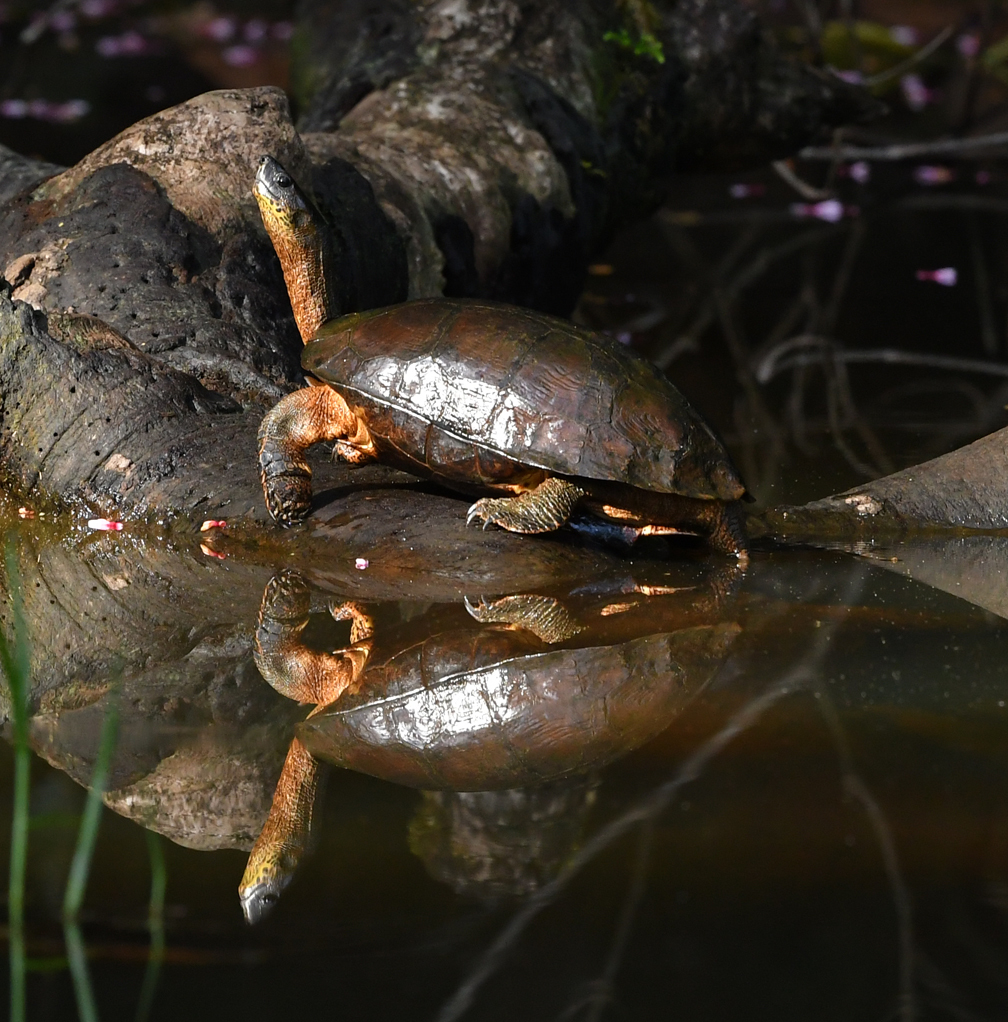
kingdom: Animalia
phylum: Chordata
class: Testudines
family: Geoemydidae
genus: Rhinoclemmys
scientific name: Rhinoclemmys funerea
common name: Black wood turtle
